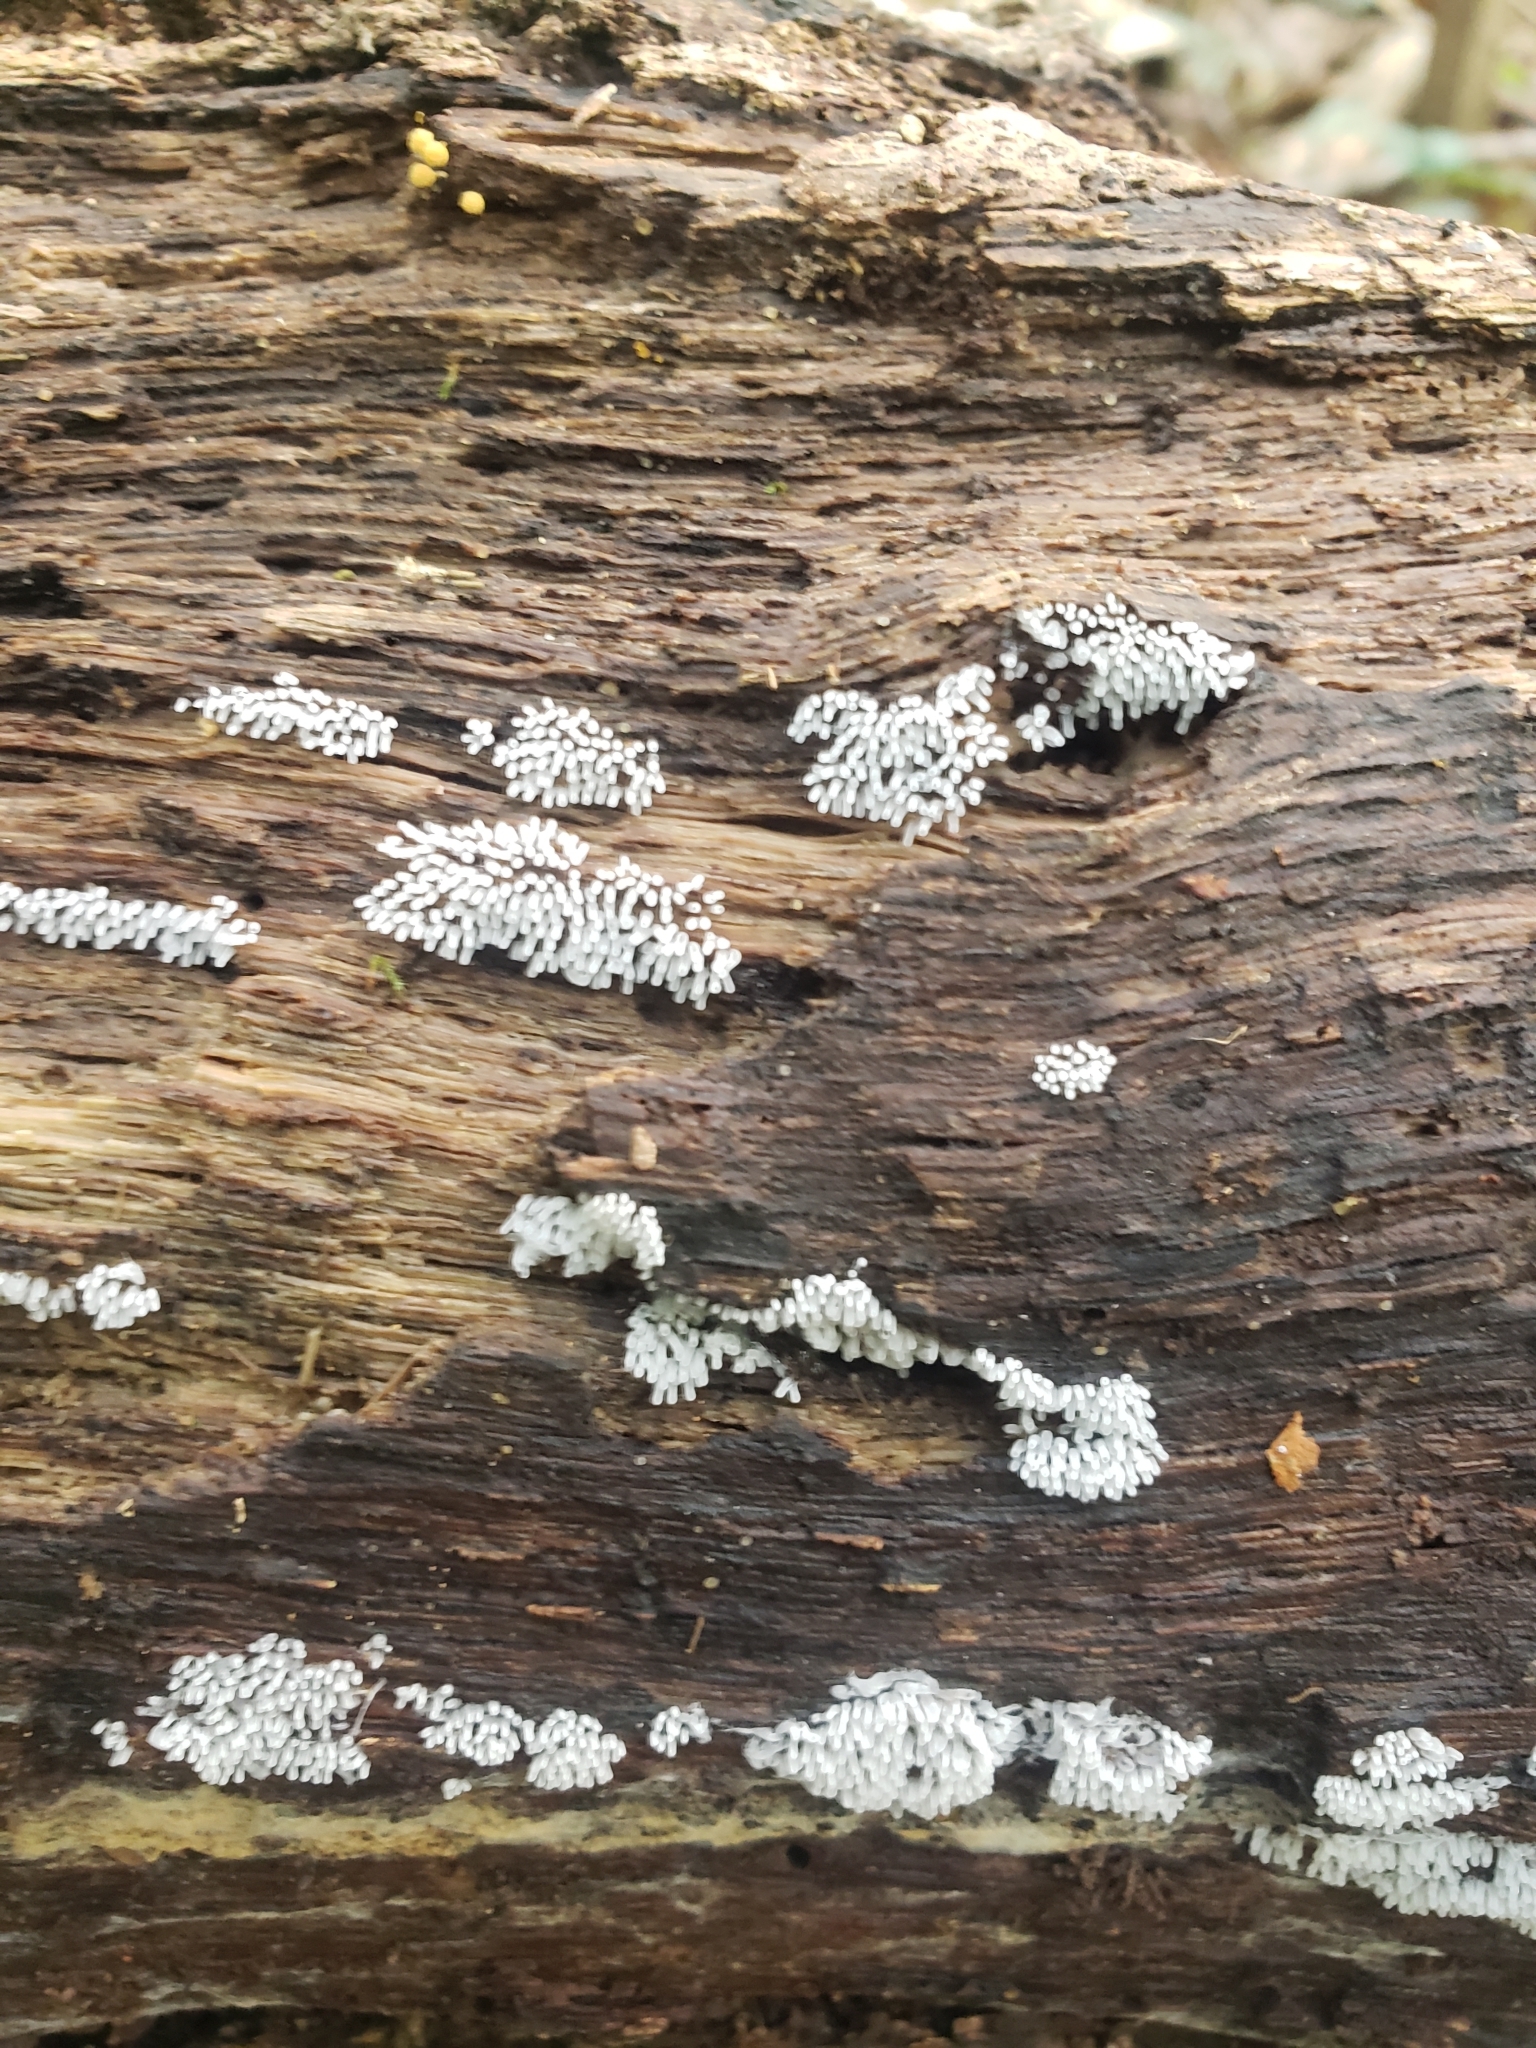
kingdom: Protozoa
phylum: Mycetozoa
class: Protosteliomycetes
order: Ceratiomyxales
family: Ceratiomyxaceae
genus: Ceratiomyxa
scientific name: Ceratiomyxa fruticulosa
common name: Honeycomb coral slime mold
